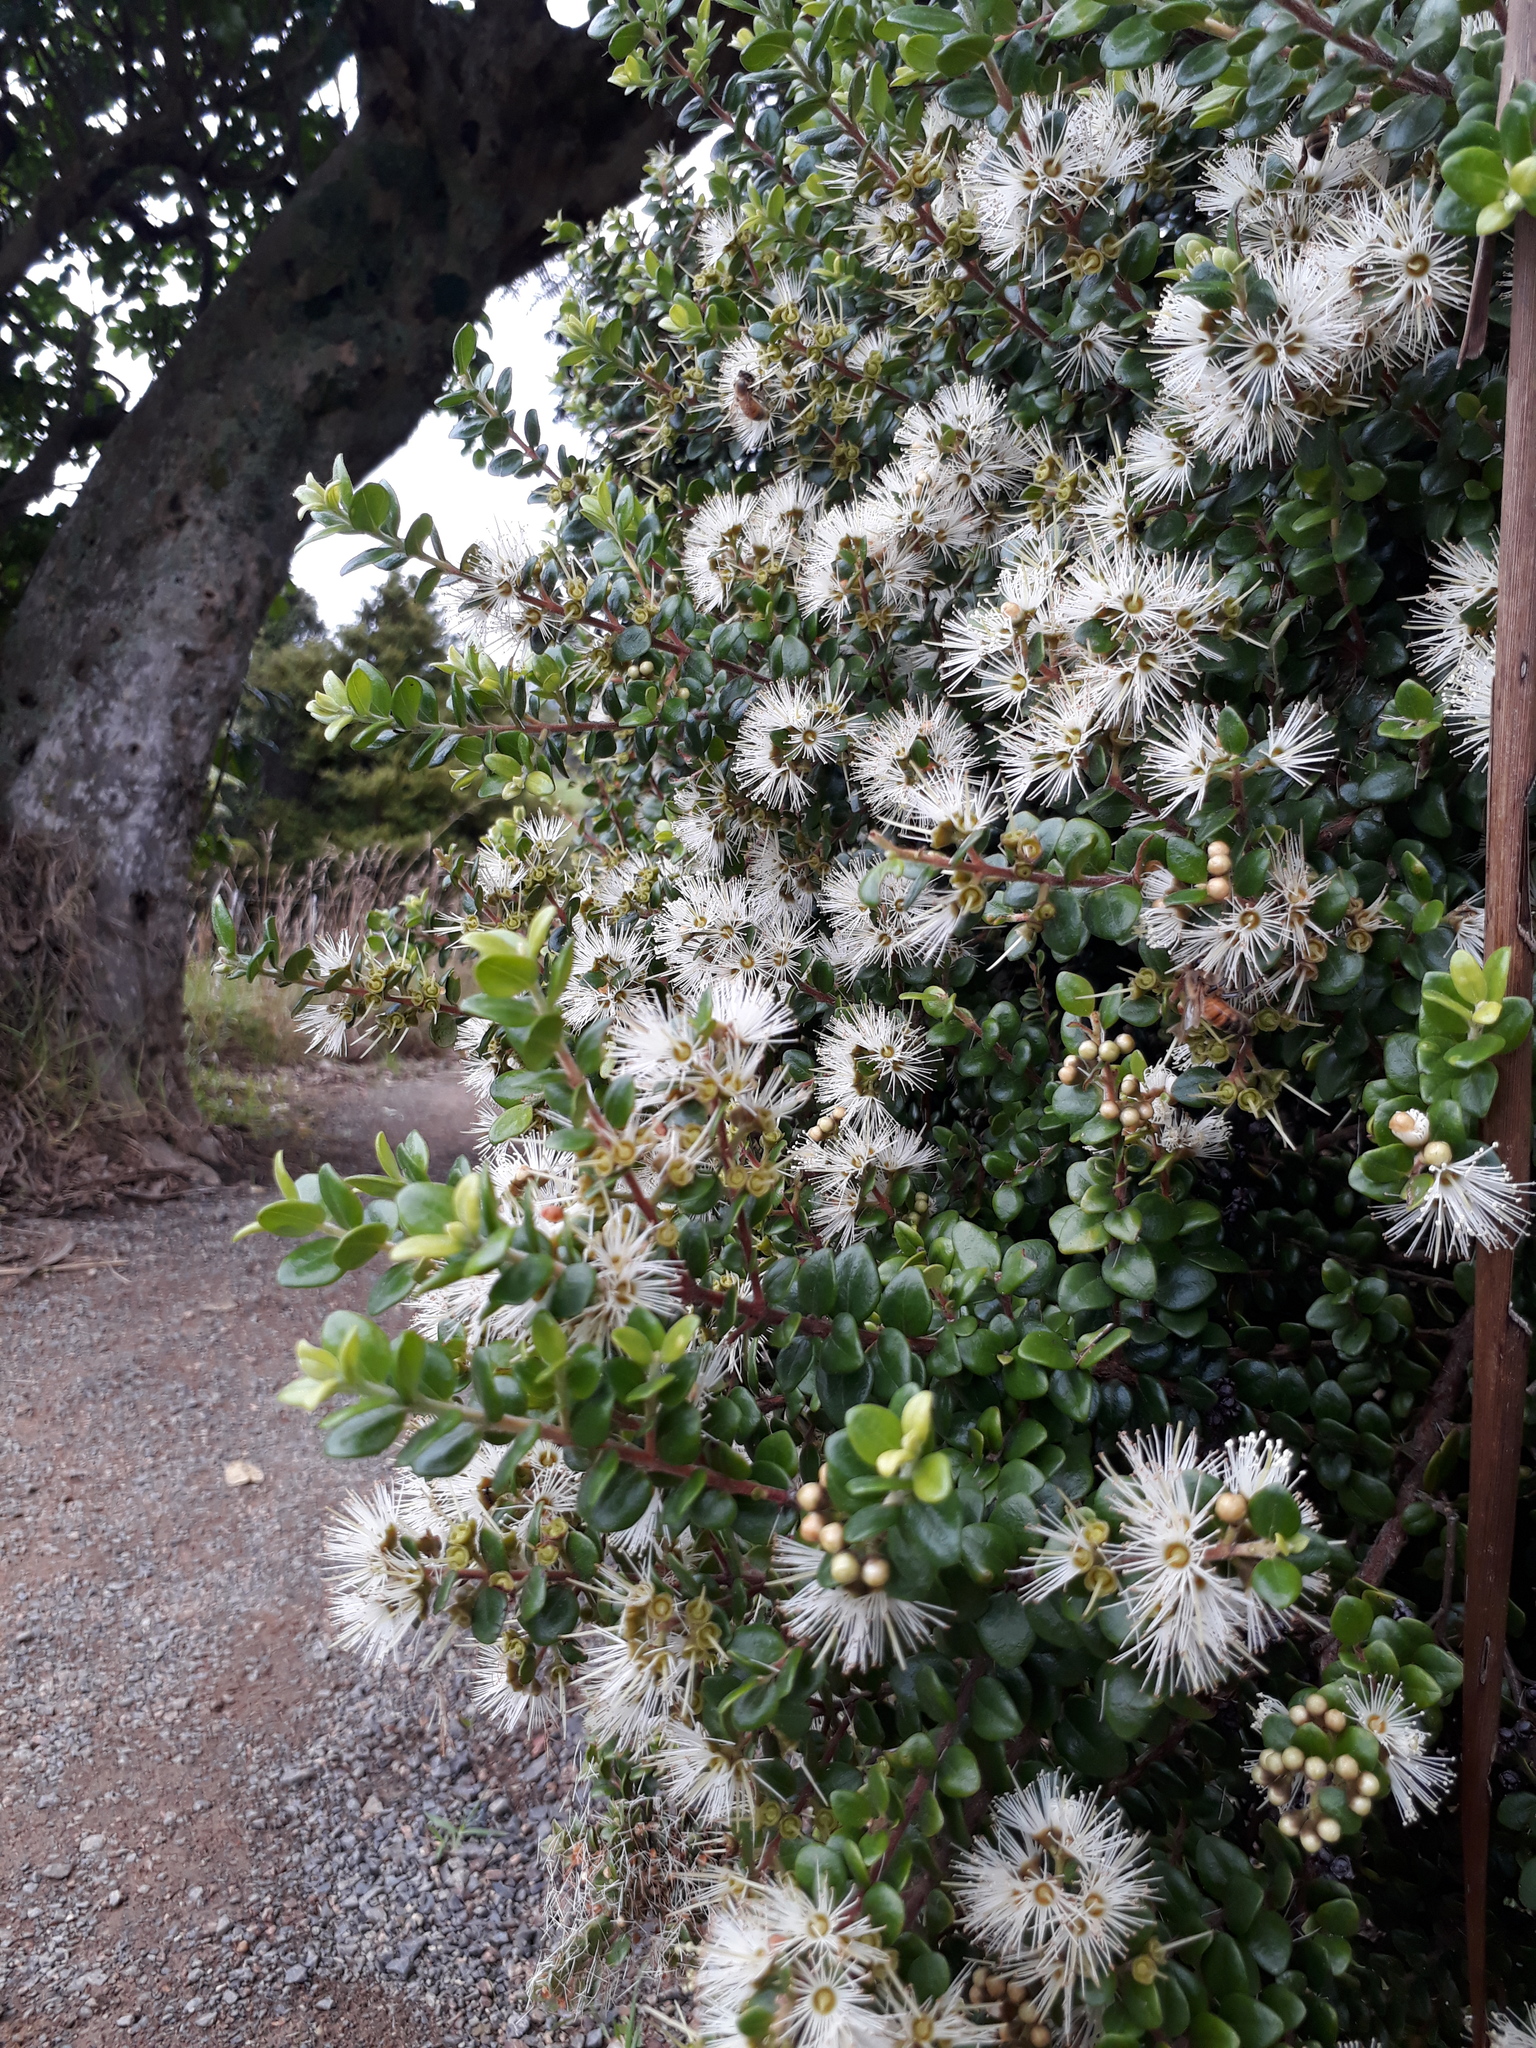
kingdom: Plantae
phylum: Tracheophyta
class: Magnoliopsida
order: Myrtales
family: Myrtaceae
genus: Metrosideros
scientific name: Metrosideros perforata
